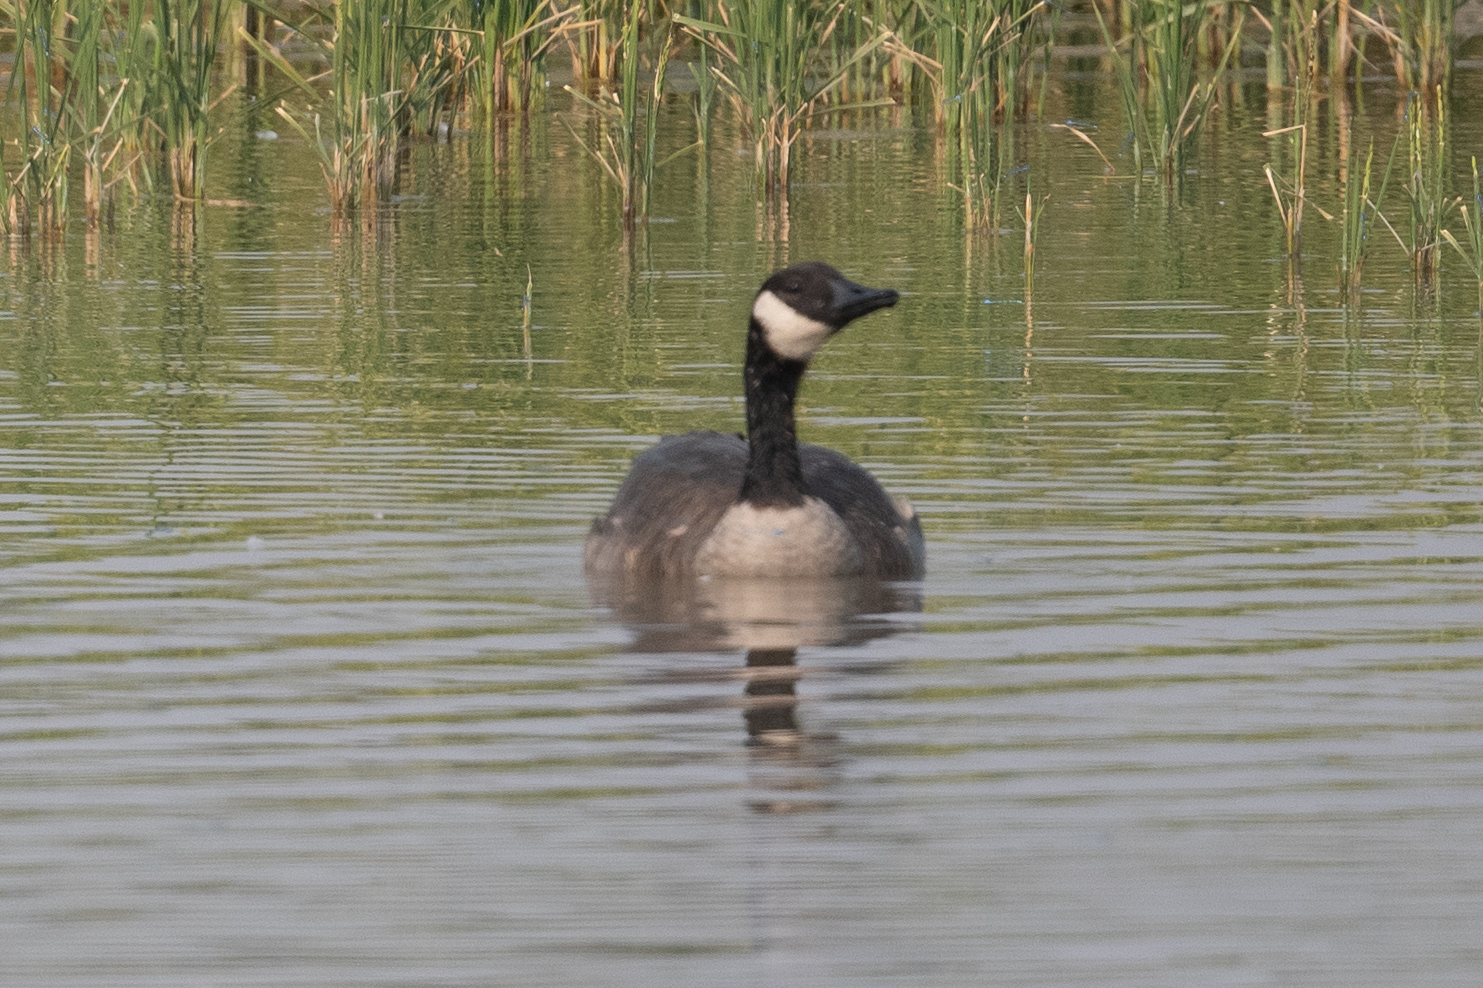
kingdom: Animalia
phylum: Chordata
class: Aves
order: Anseriformes
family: Anatidae
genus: Branta
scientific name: Branta canadensis
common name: Canada goose
